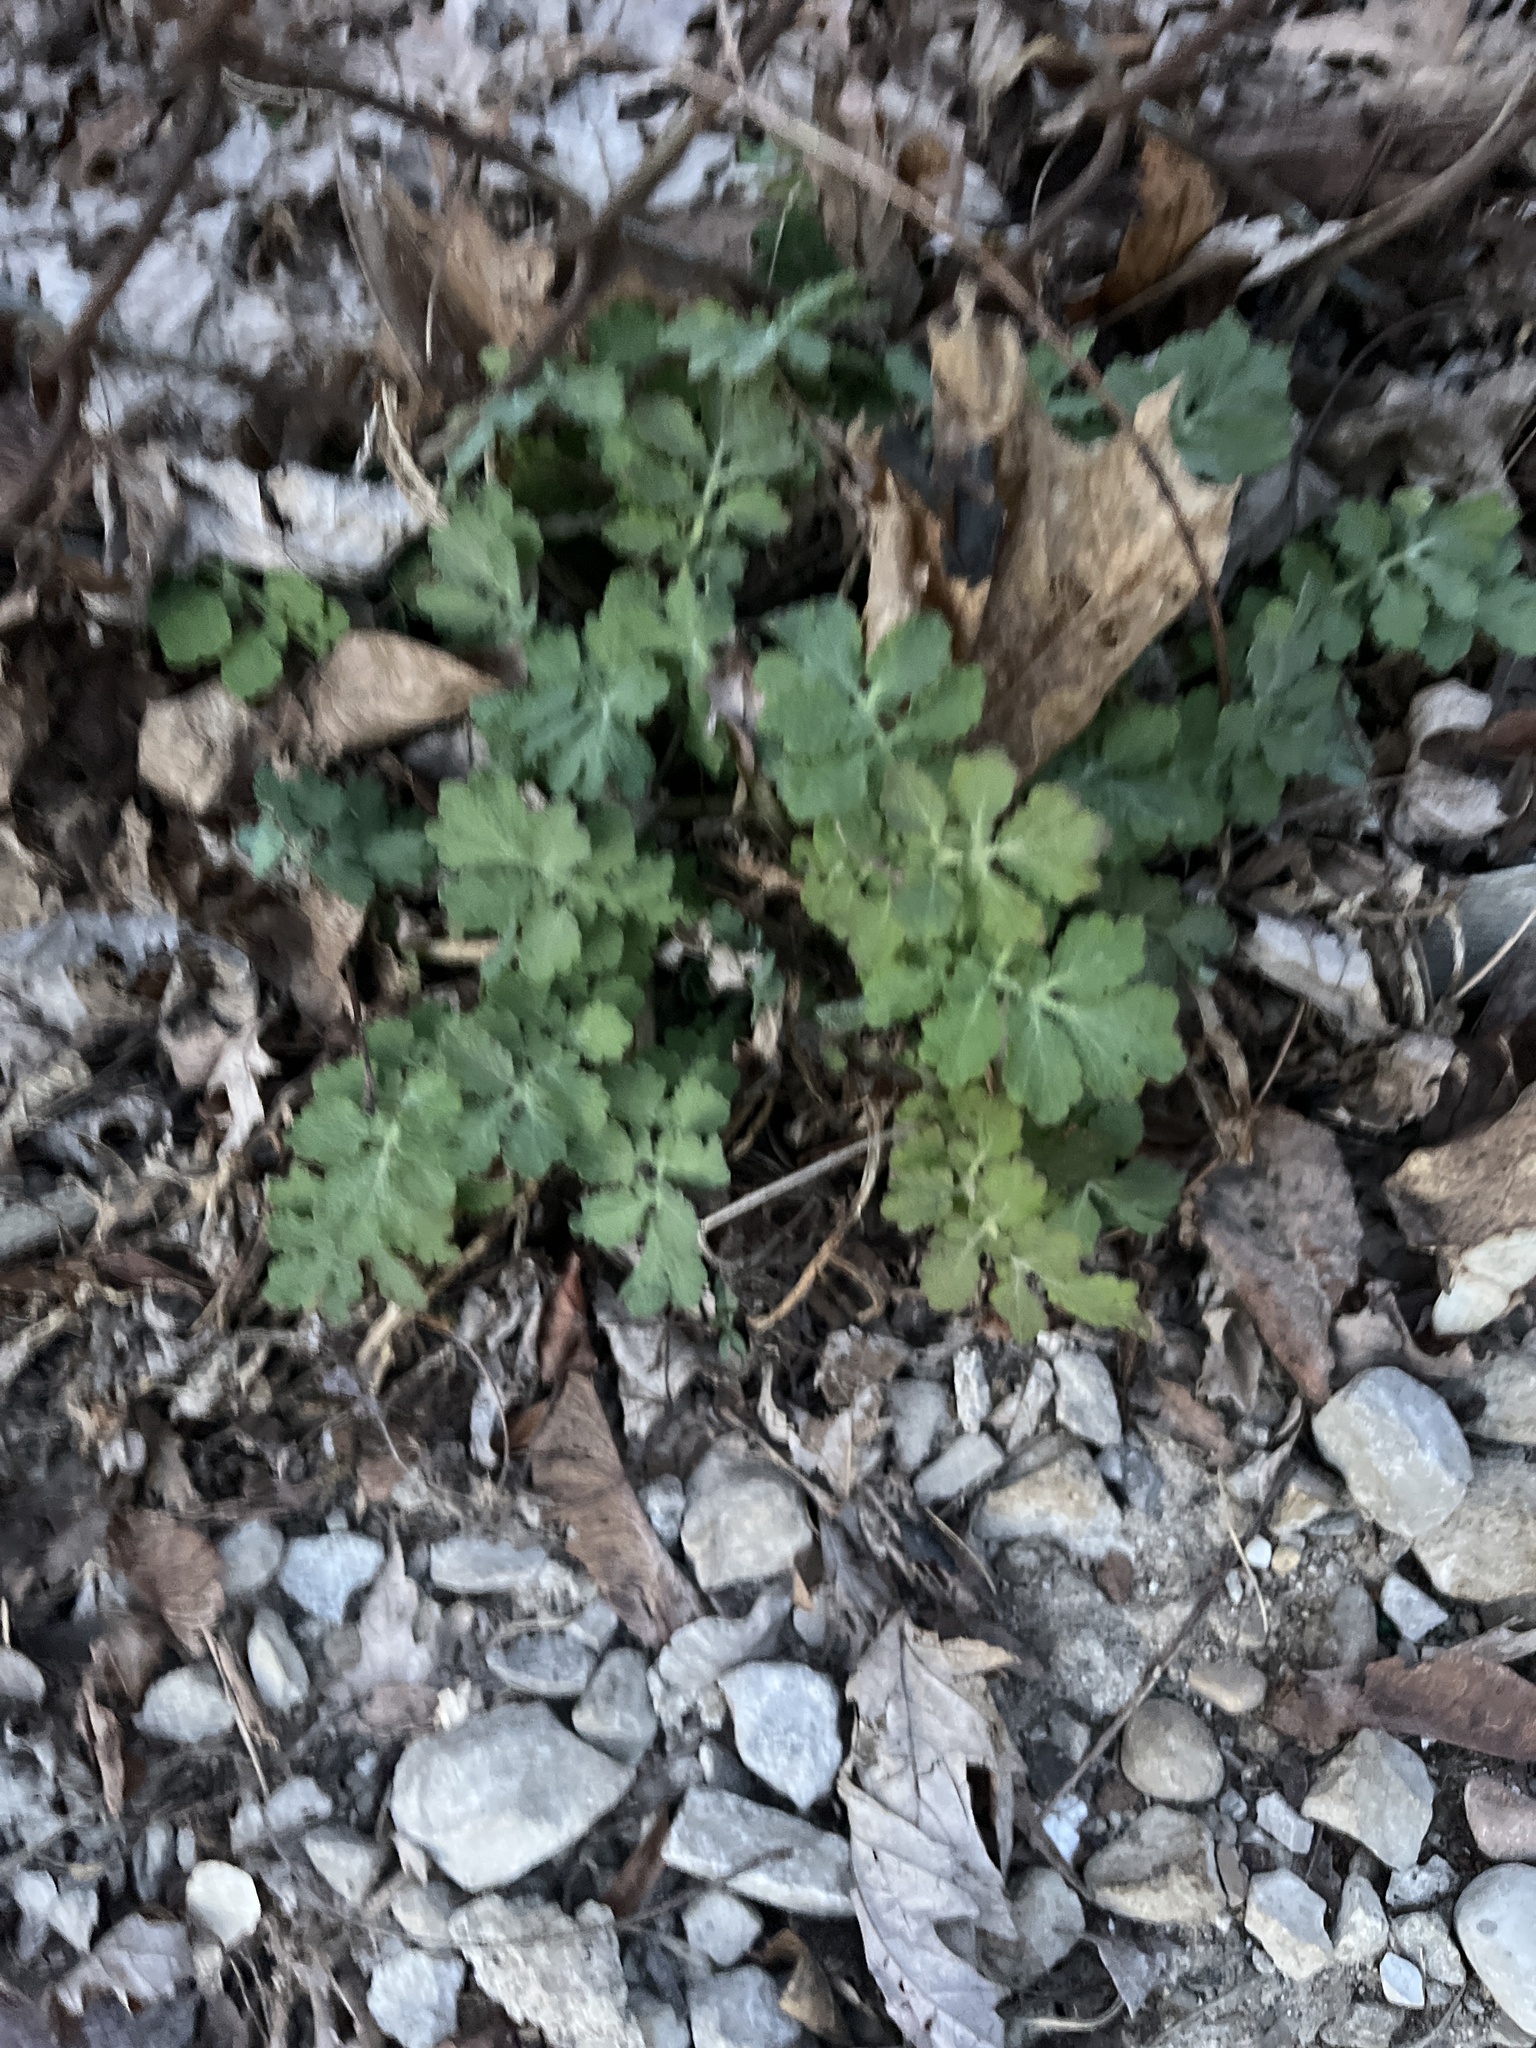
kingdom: Plantae
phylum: Tracheophyta
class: Magnoliopsida
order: Ranunculales
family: Papaveraceae
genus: Chelidonium
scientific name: Chelidonium majus
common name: Greater celandine
